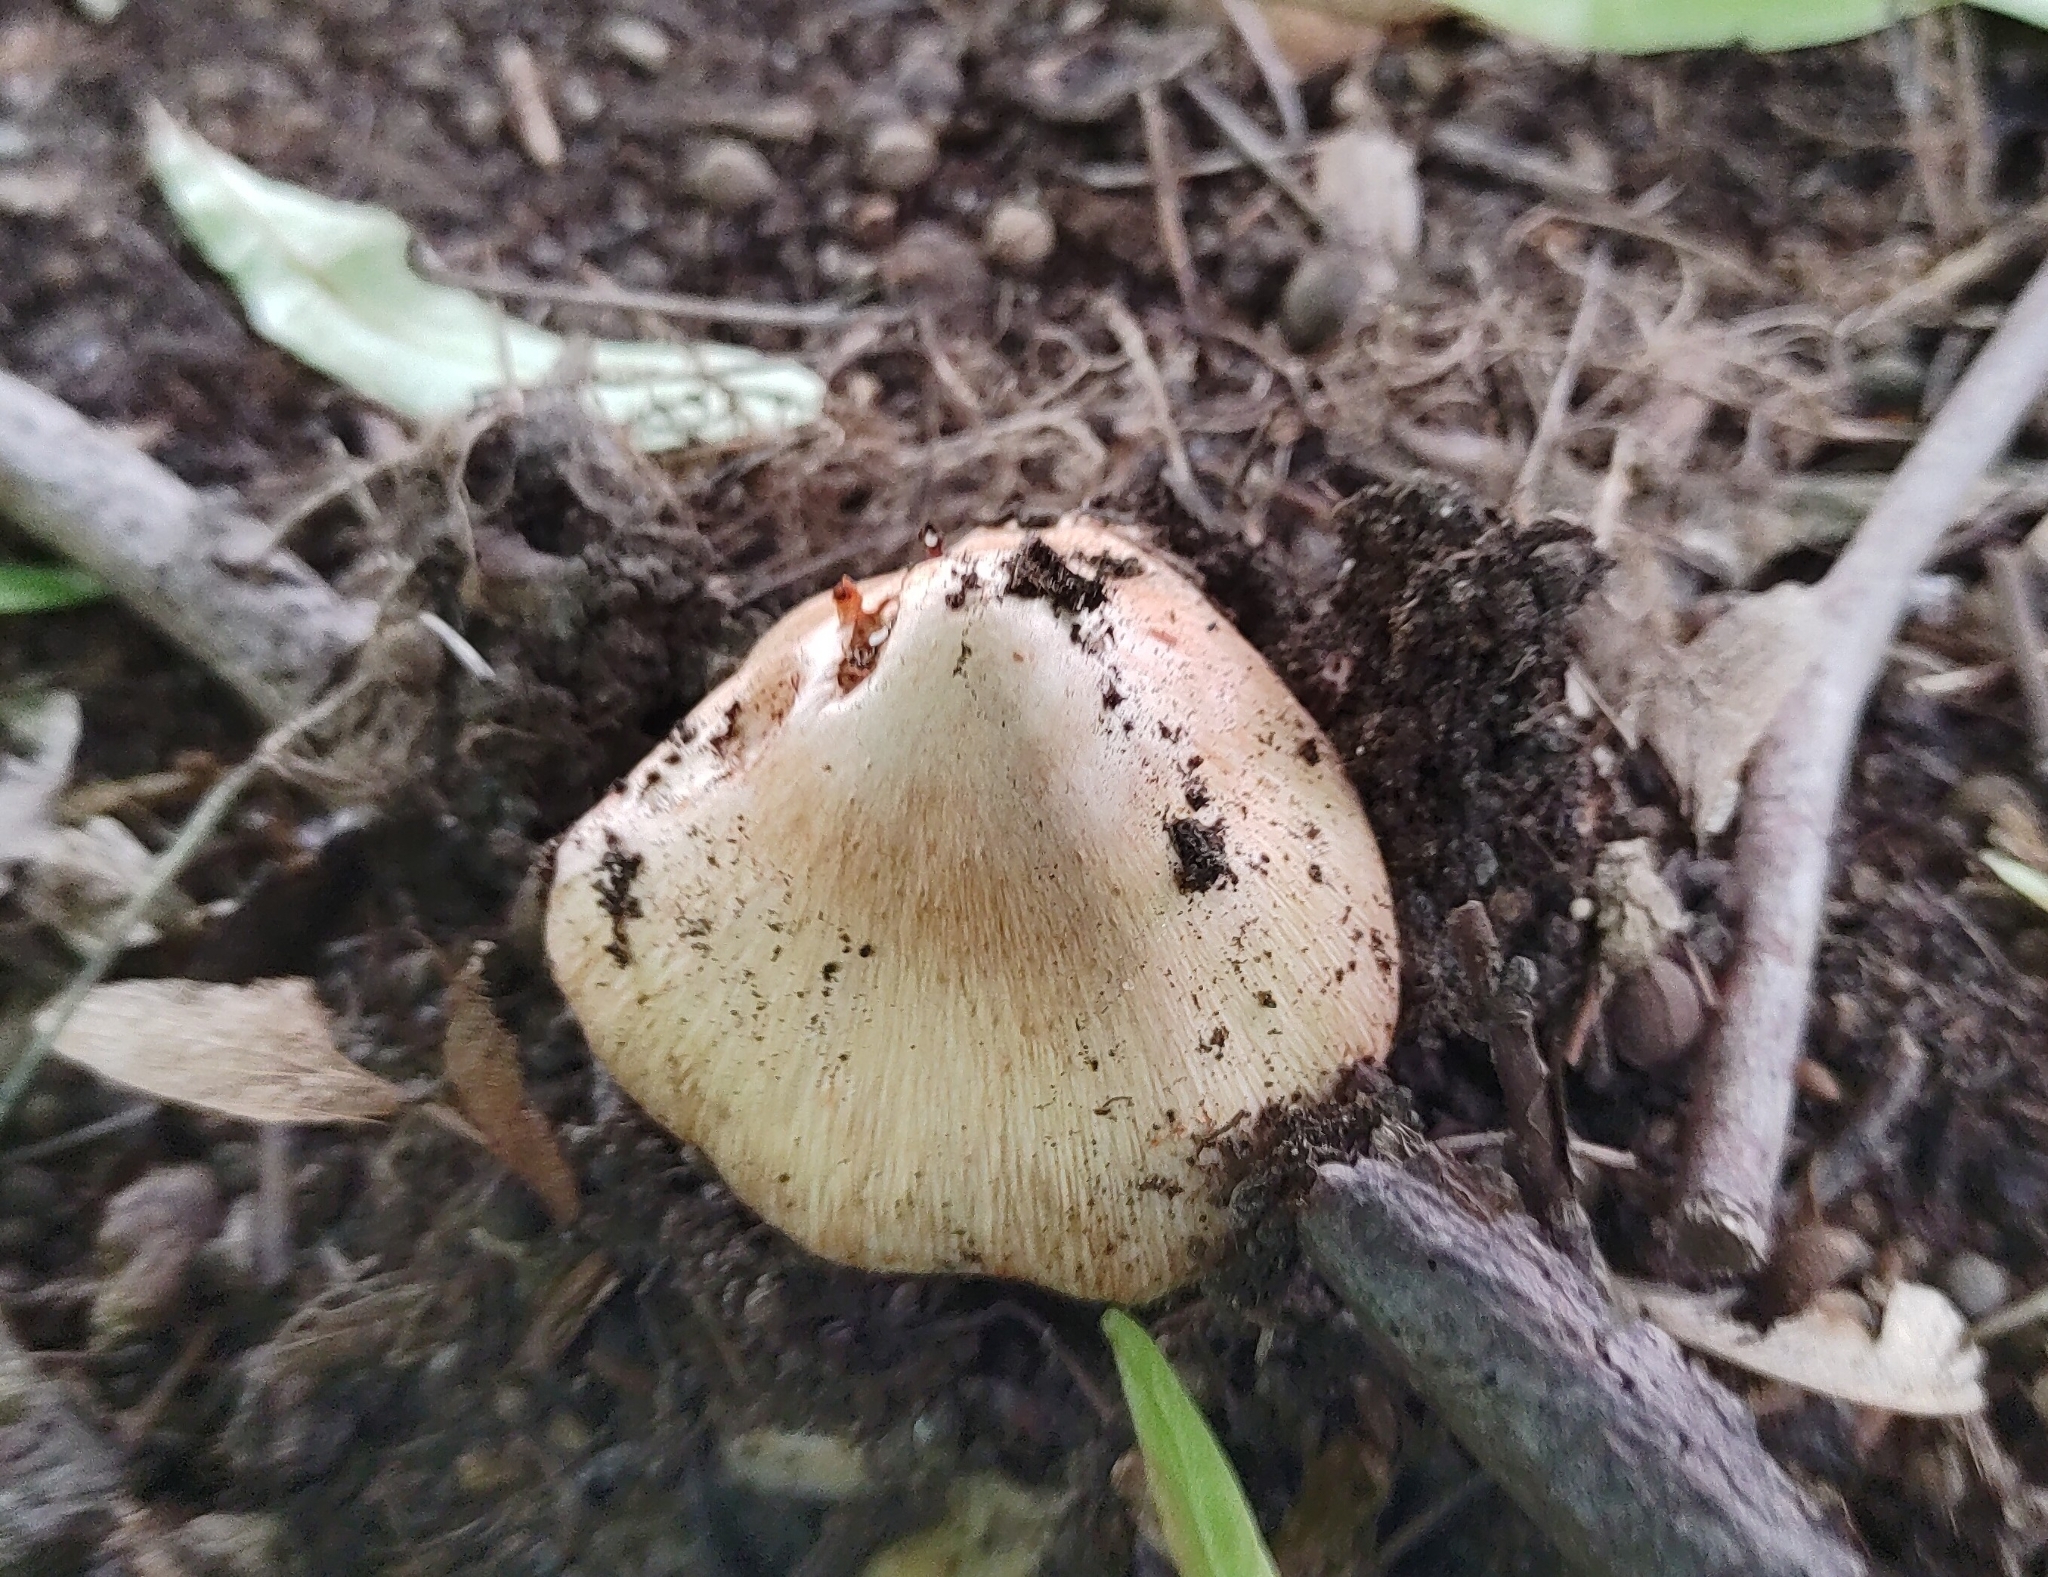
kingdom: Fungi
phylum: Basidiomycota
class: Agaricomycetes
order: Agaricales
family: Inocybaceae
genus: Inosperma
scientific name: Inosperma erubescens
